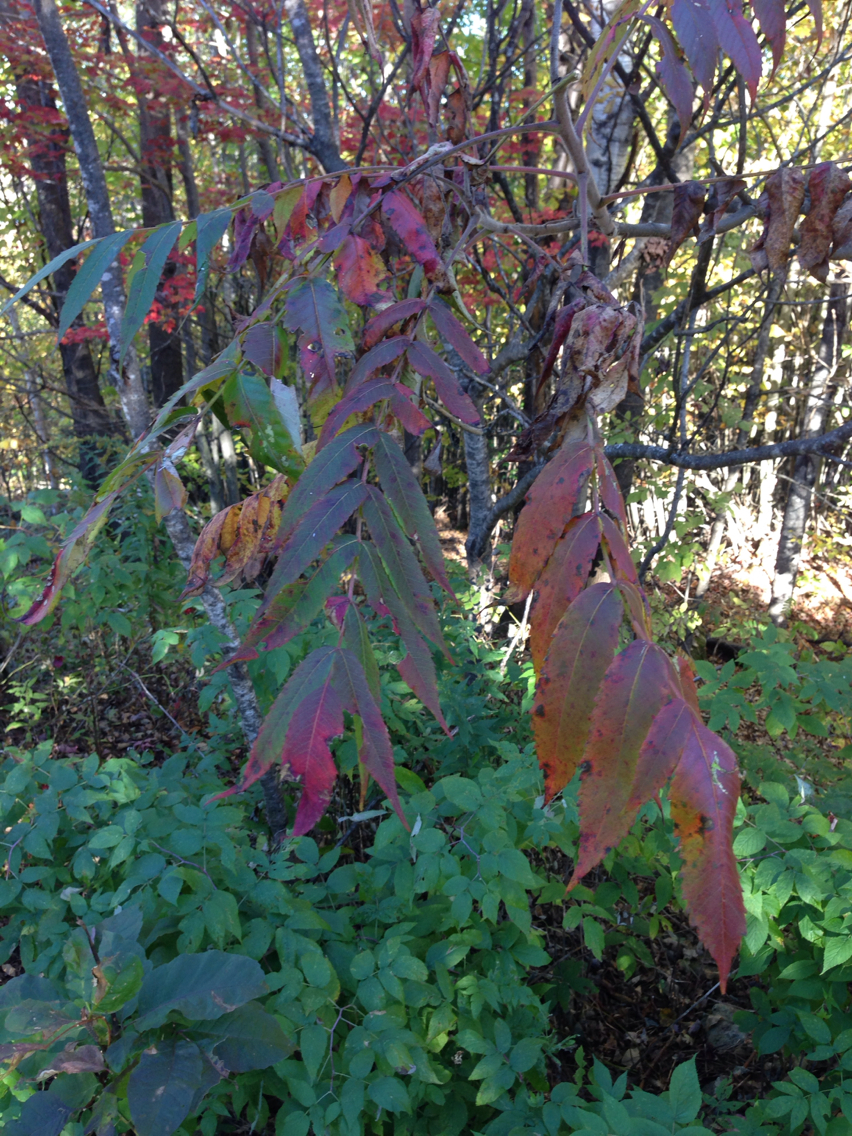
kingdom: Plantae
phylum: Tracheophyta
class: Magnoliopsida
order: Sapindales
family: Anacardiaceae
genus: Rhus
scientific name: Rhus typhina
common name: Staghorn sumac
